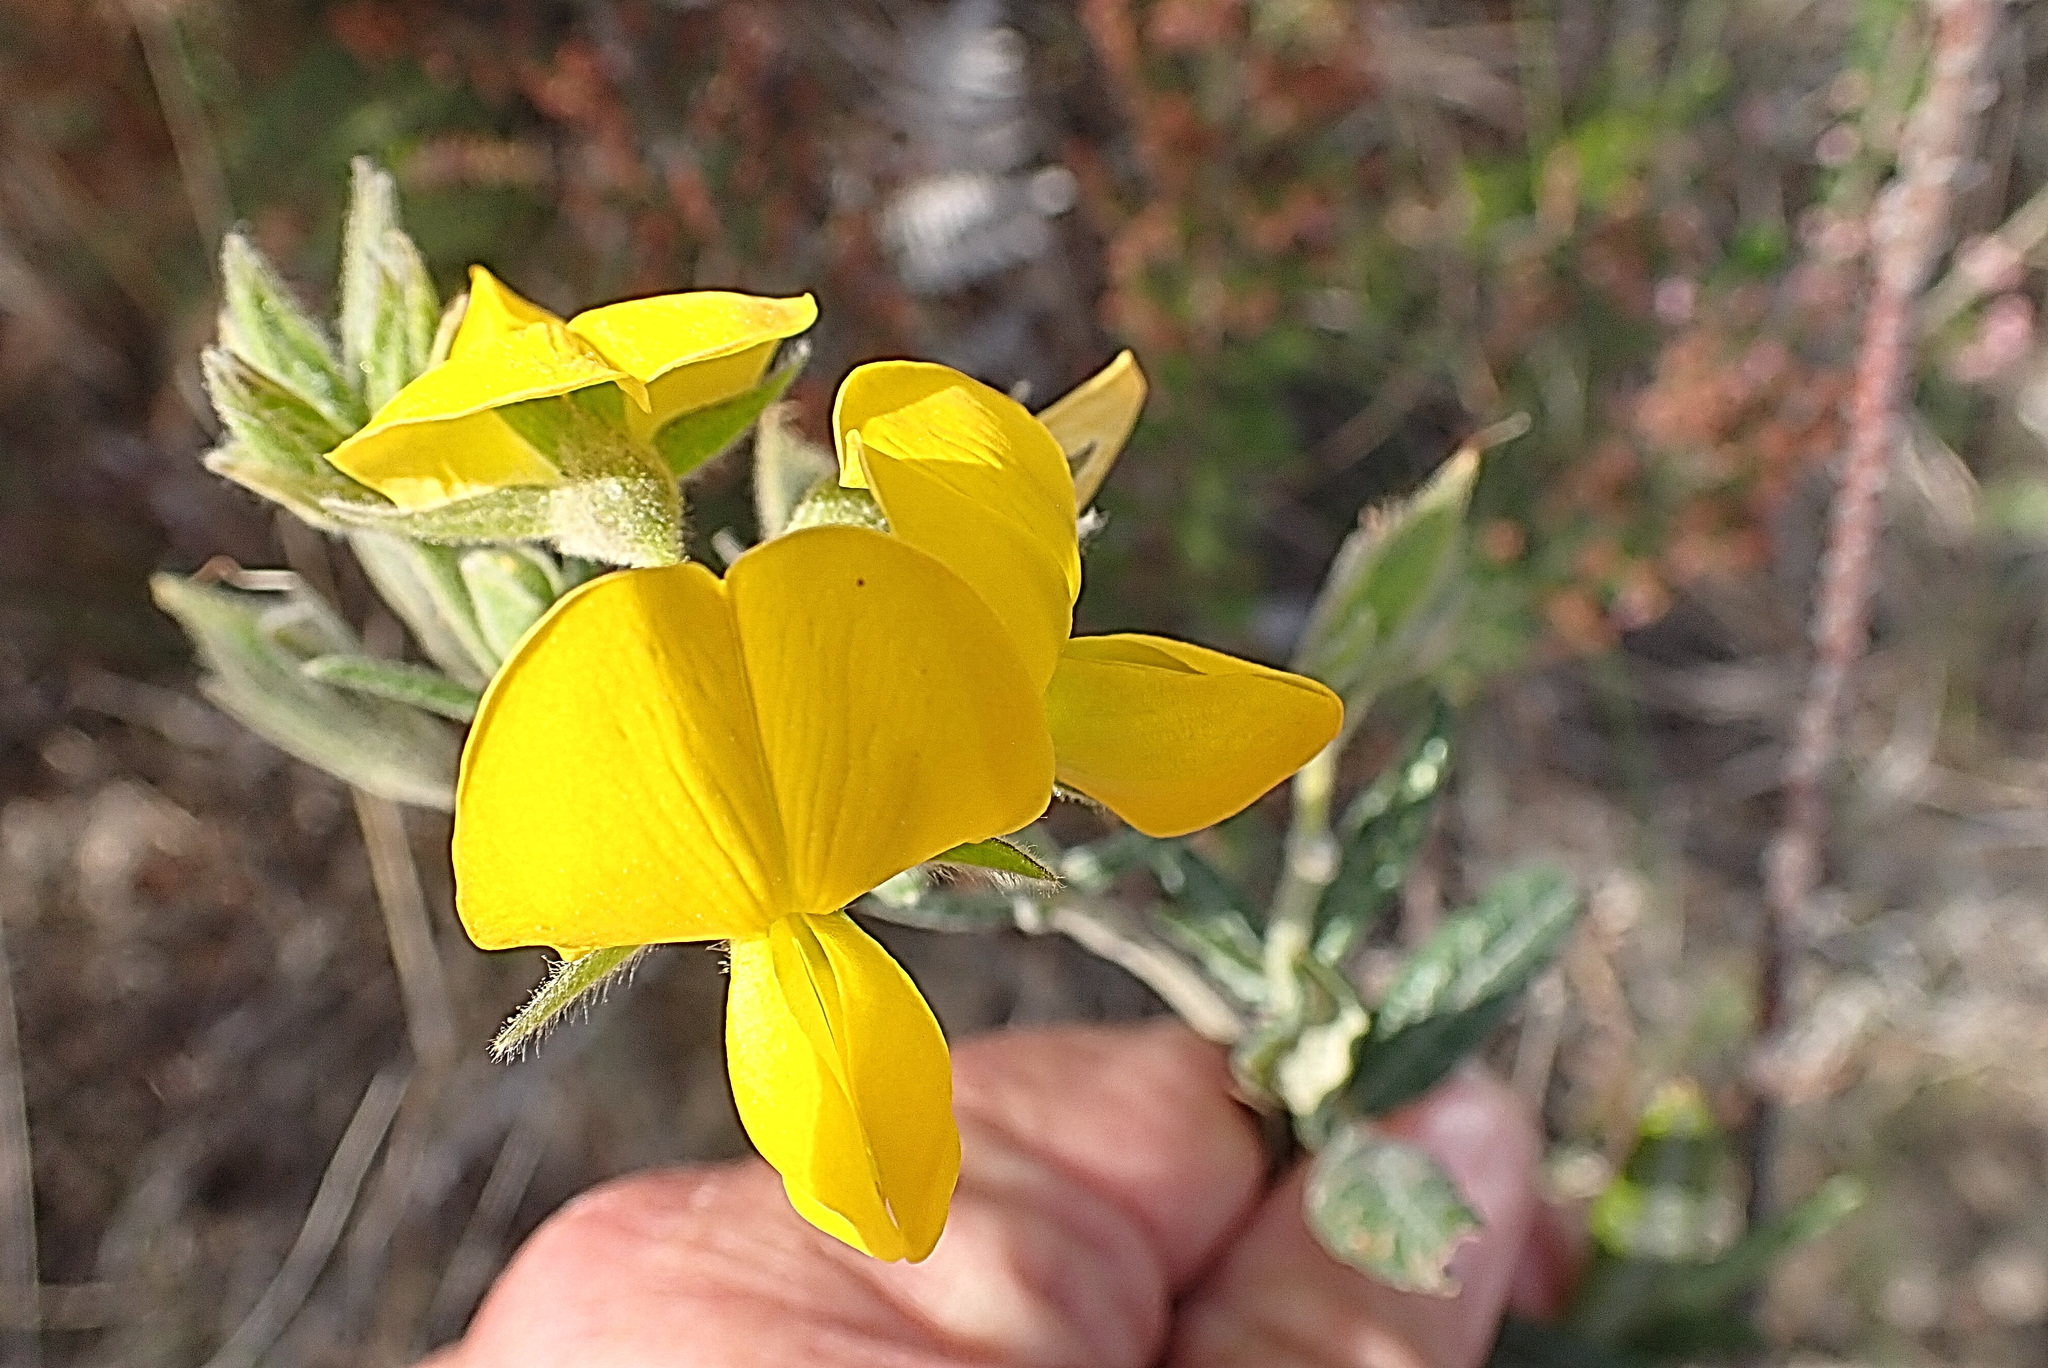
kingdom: Plantae
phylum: Tracheophyta
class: Magnoliopsida
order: Fabales
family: Fabaceae
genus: Rhynchosia
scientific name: Rhynchosia leucoscias
